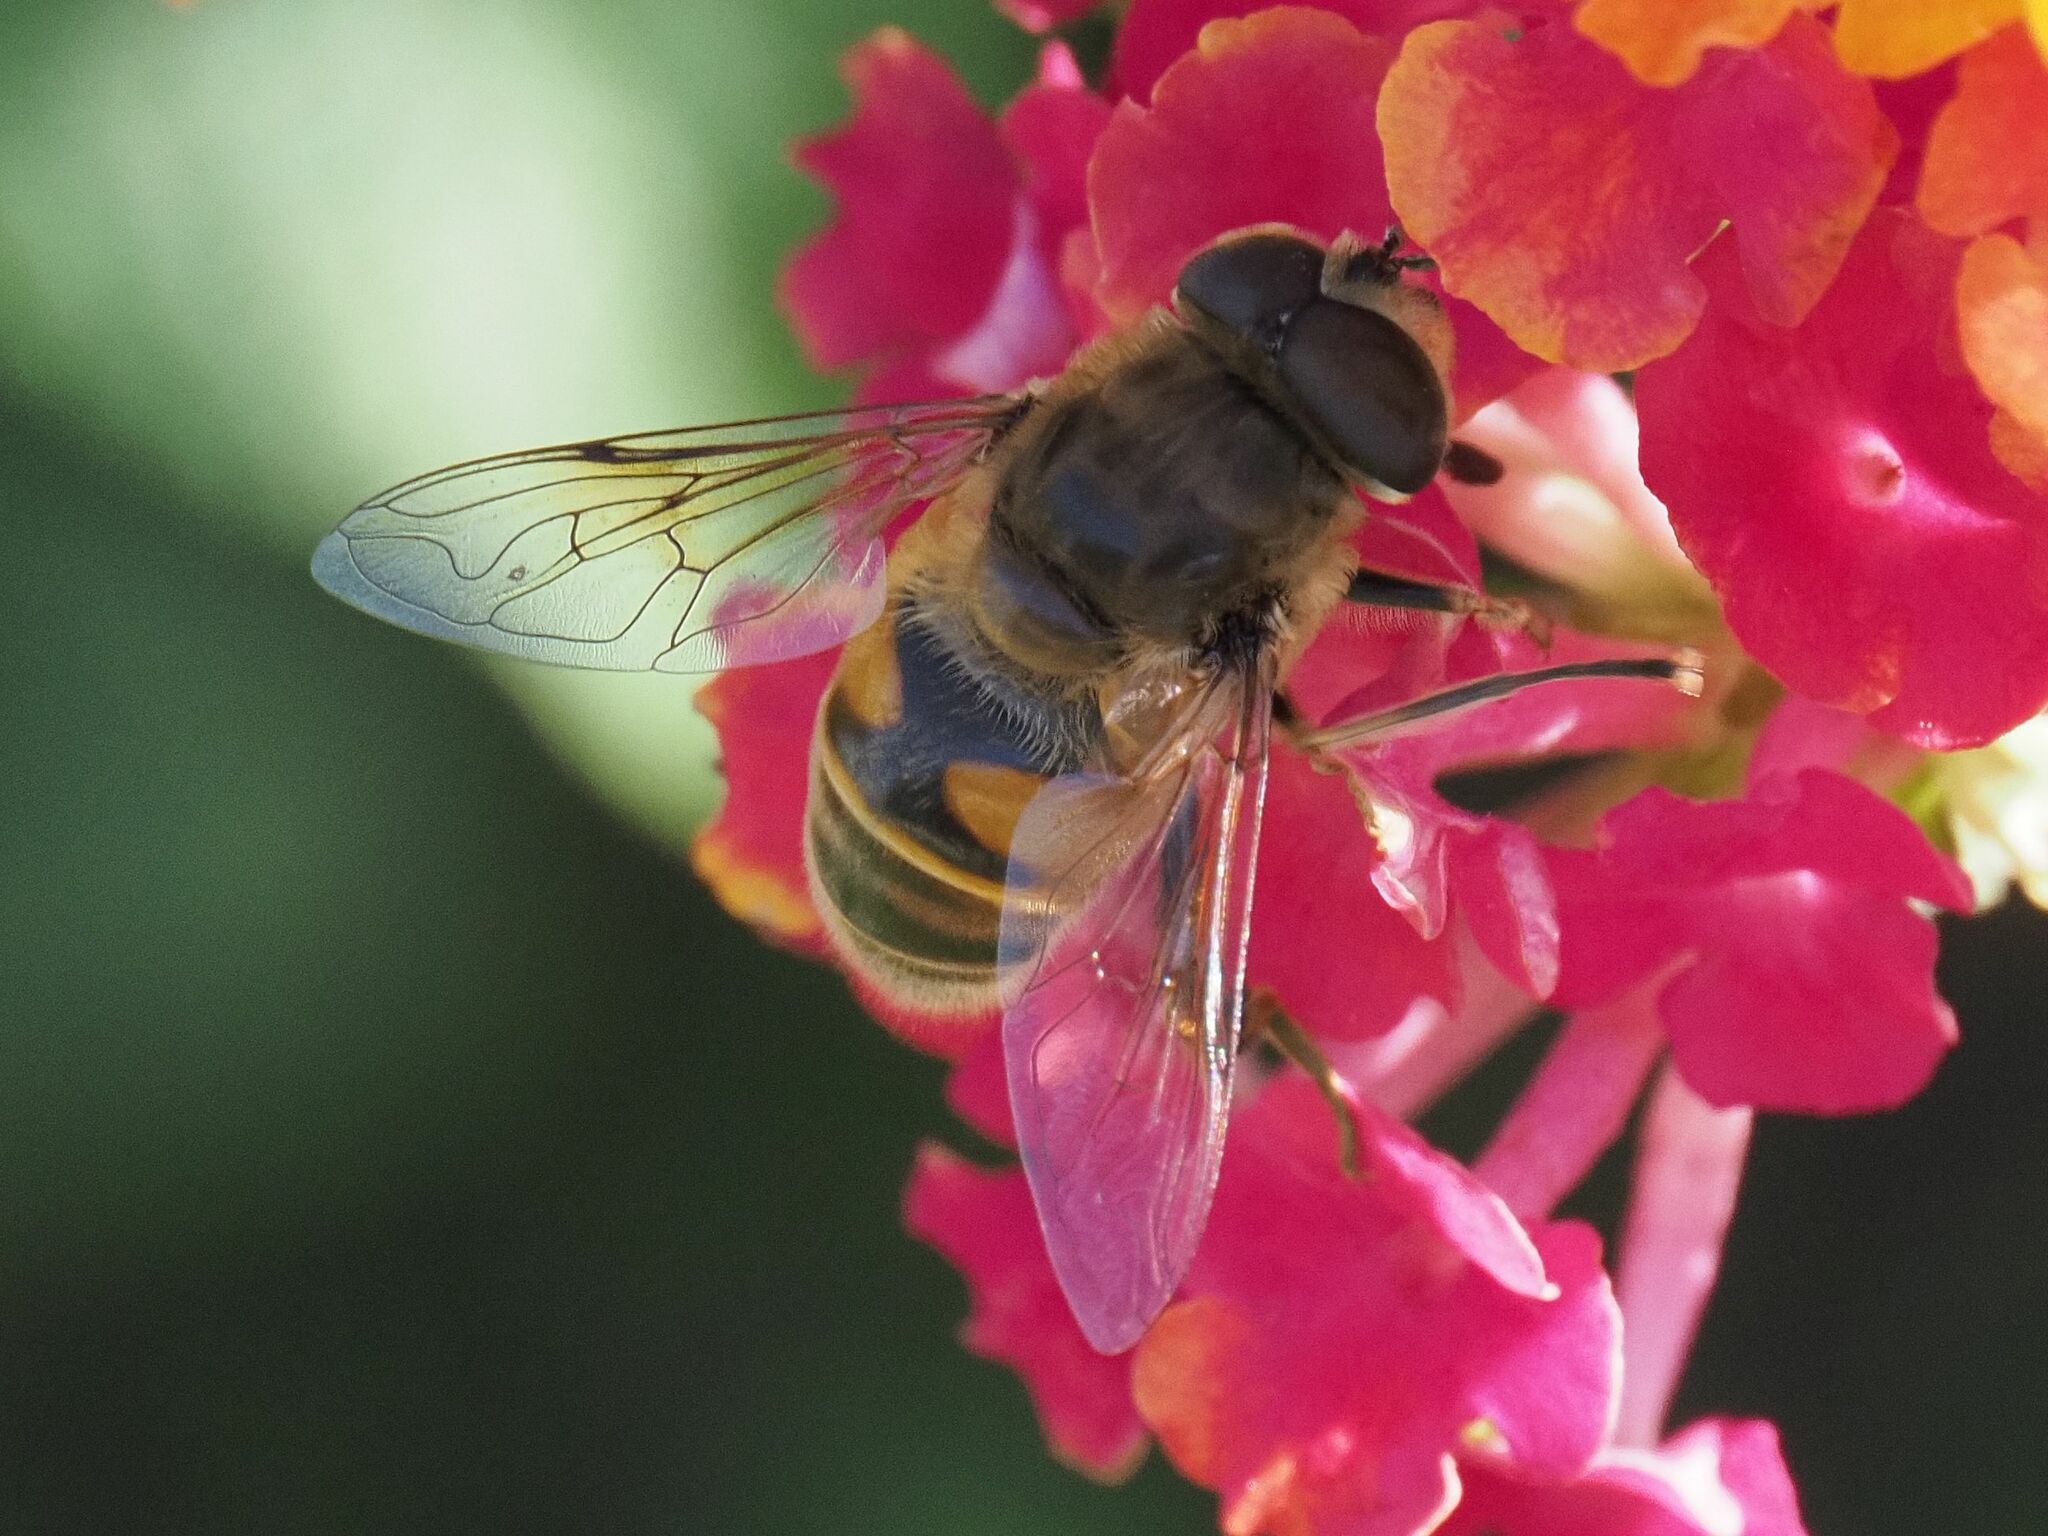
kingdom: Animalia
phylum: Arthropoda
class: Insecta
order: Diptera
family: Syrphidae
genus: Eristalis
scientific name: Eristalis tenax
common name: Drone fly
